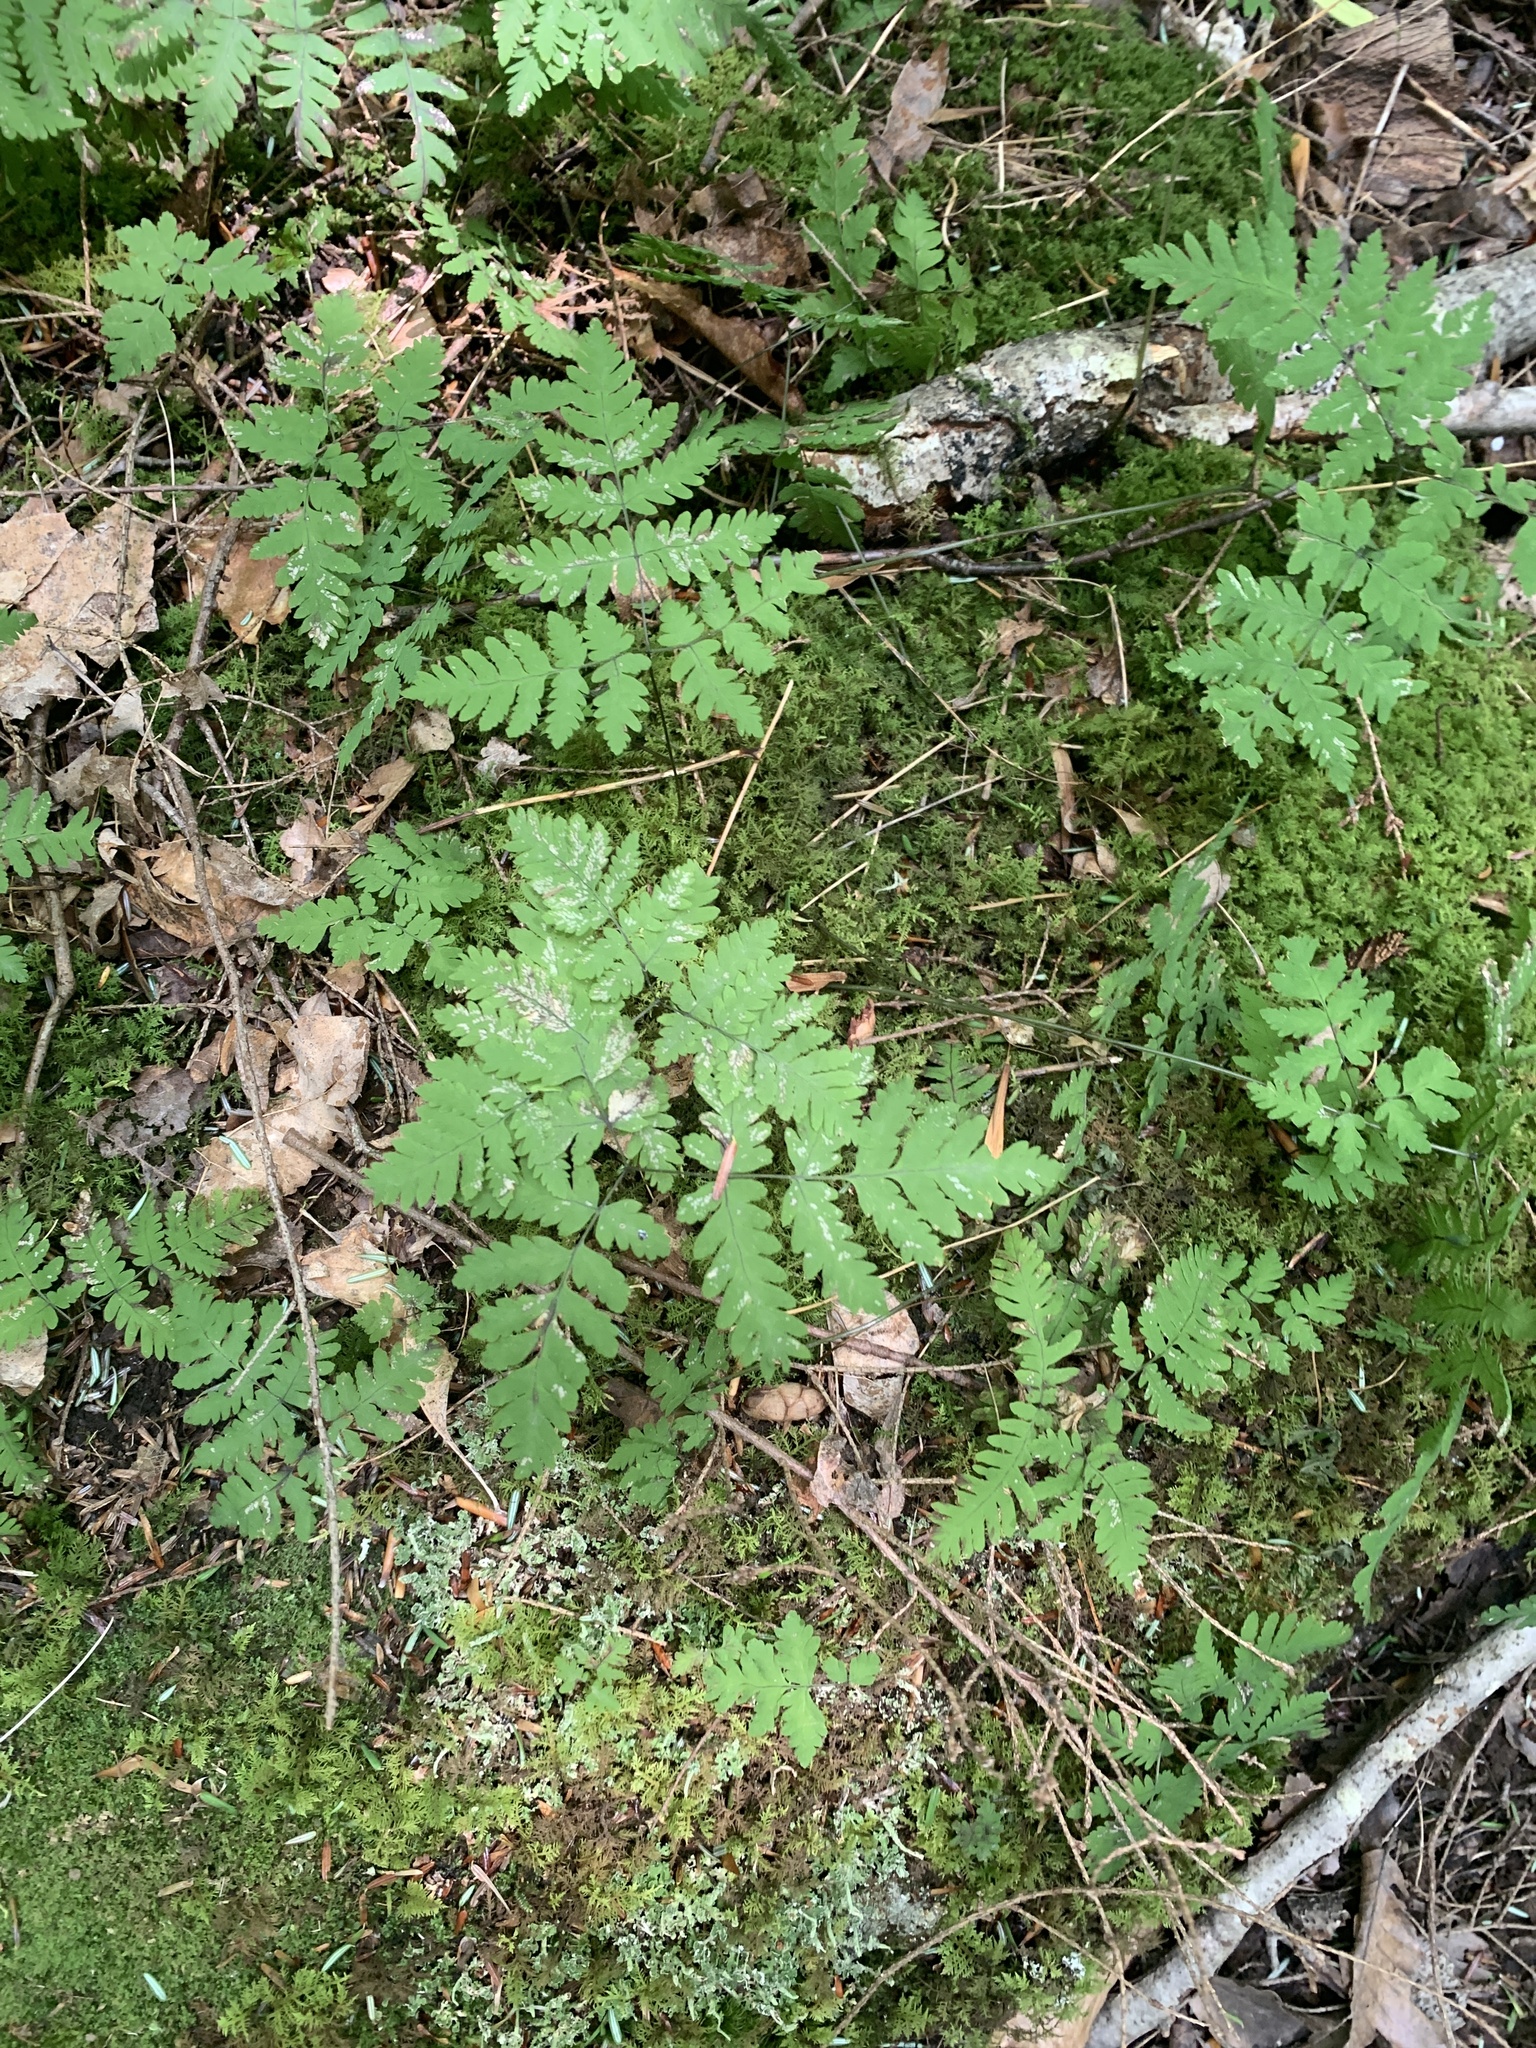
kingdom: Plantae
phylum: Tracheophyta
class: Polypodiopsida
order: Polypodiales
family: Cystopteridaceae
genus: Gymnocarpium
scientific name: Gymnocarpium dryopteris
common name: Oak fern
